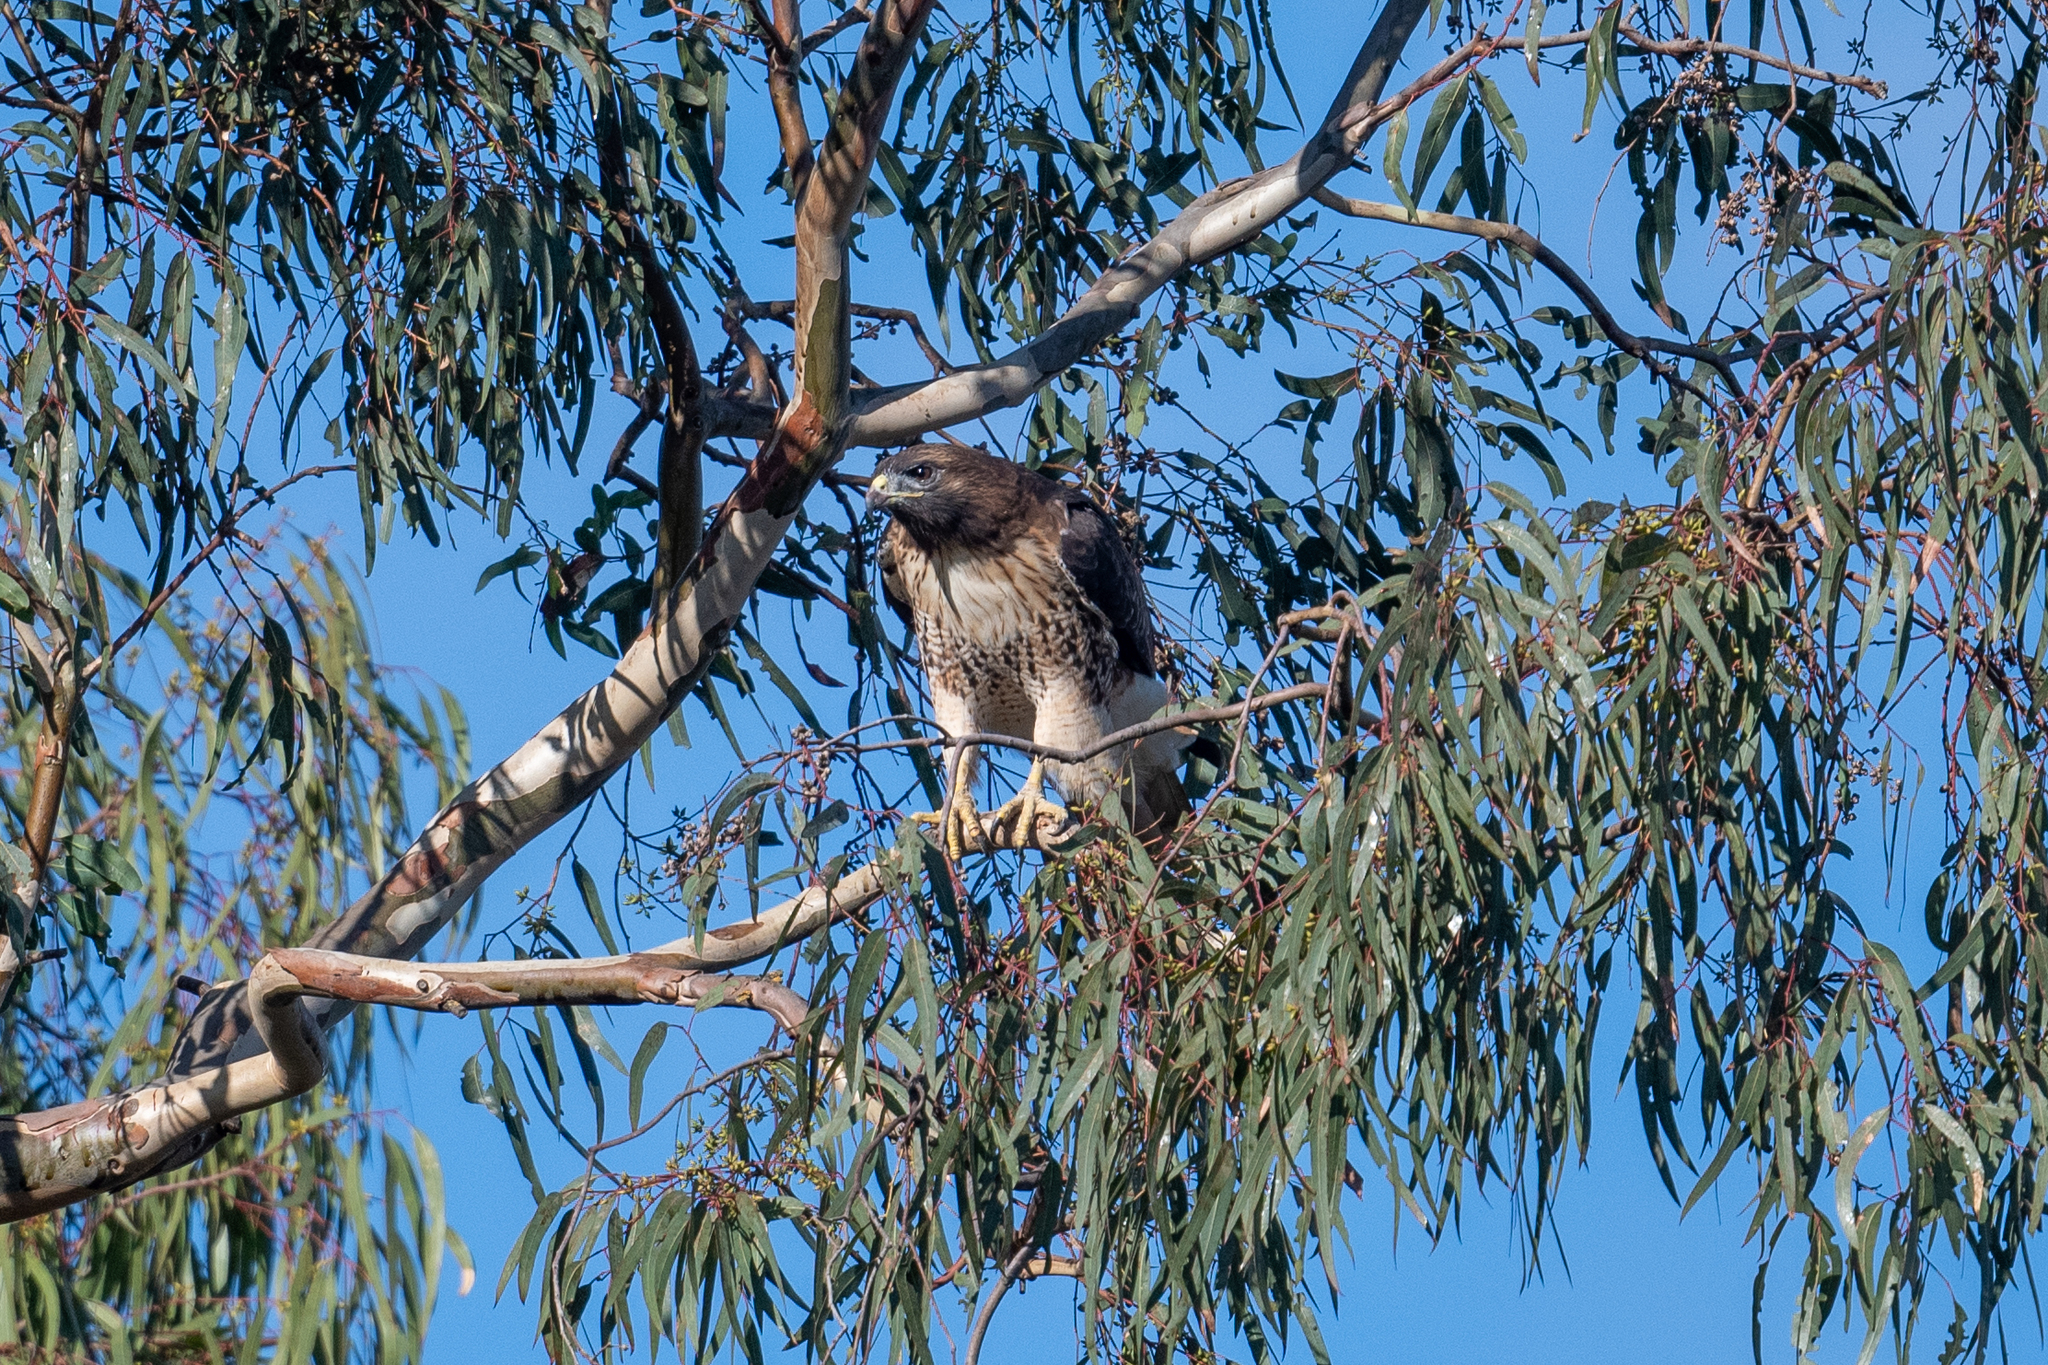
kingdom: Animalia
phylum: Chordata
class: Aves
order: Accipitriformes
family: Accipitridae
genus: Buteo
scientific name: Buteo jamaicensis
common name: Red-tailed hawk
